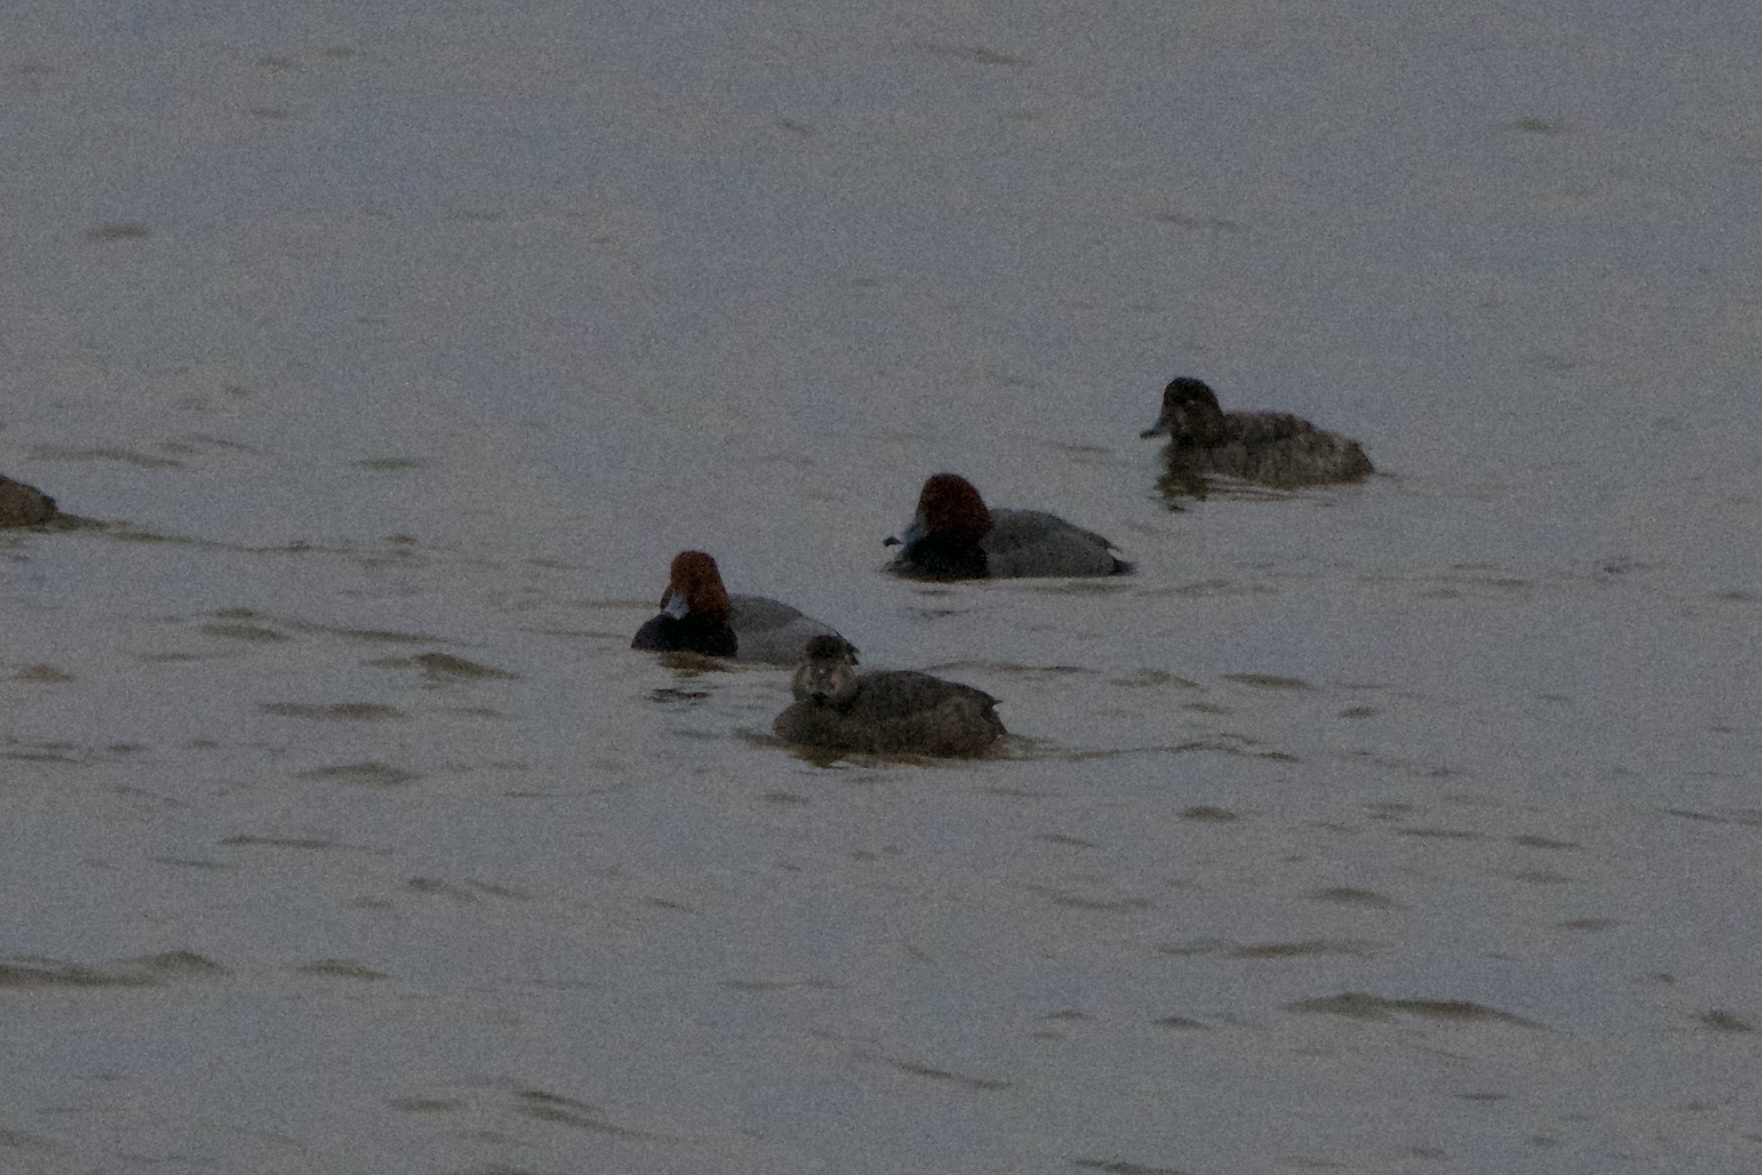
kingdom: Animalia
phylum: Chordata
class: Aves
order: Anseriformes
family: Anatidae
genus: Aythya
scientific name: Aythya americana
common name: Redhead
